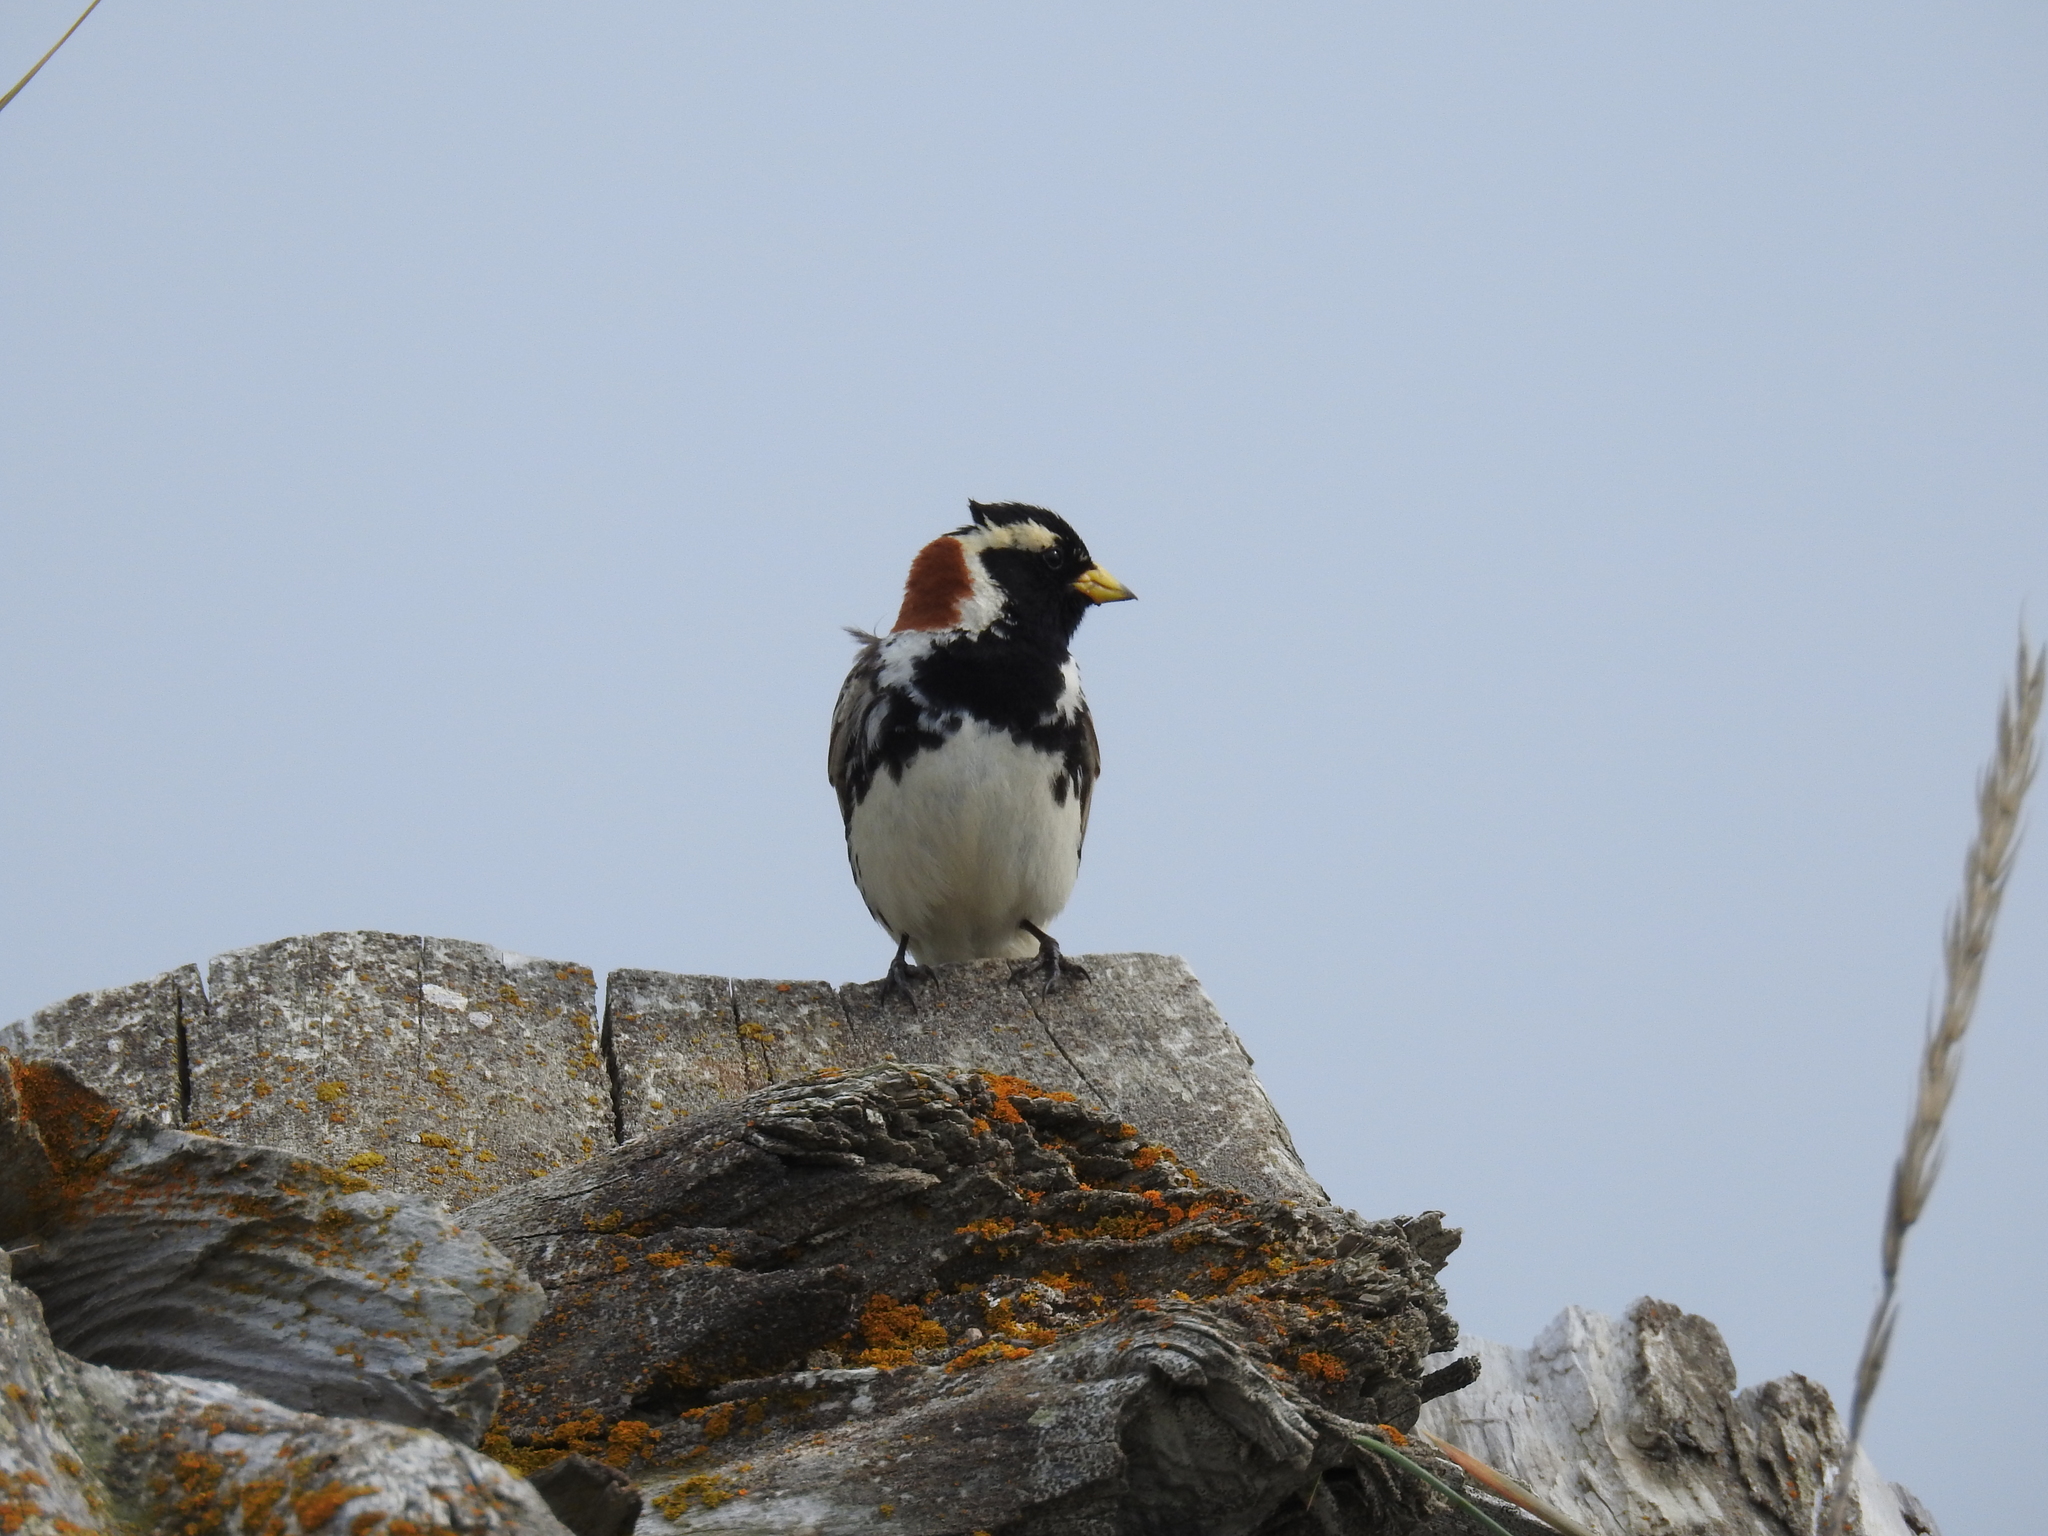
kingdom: Animalia
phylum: Chordata
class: Aves
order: Passeriformes
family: Calcariidae
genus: Calcarius
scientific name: Calcarius lapponicus
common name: Lapland longspur
